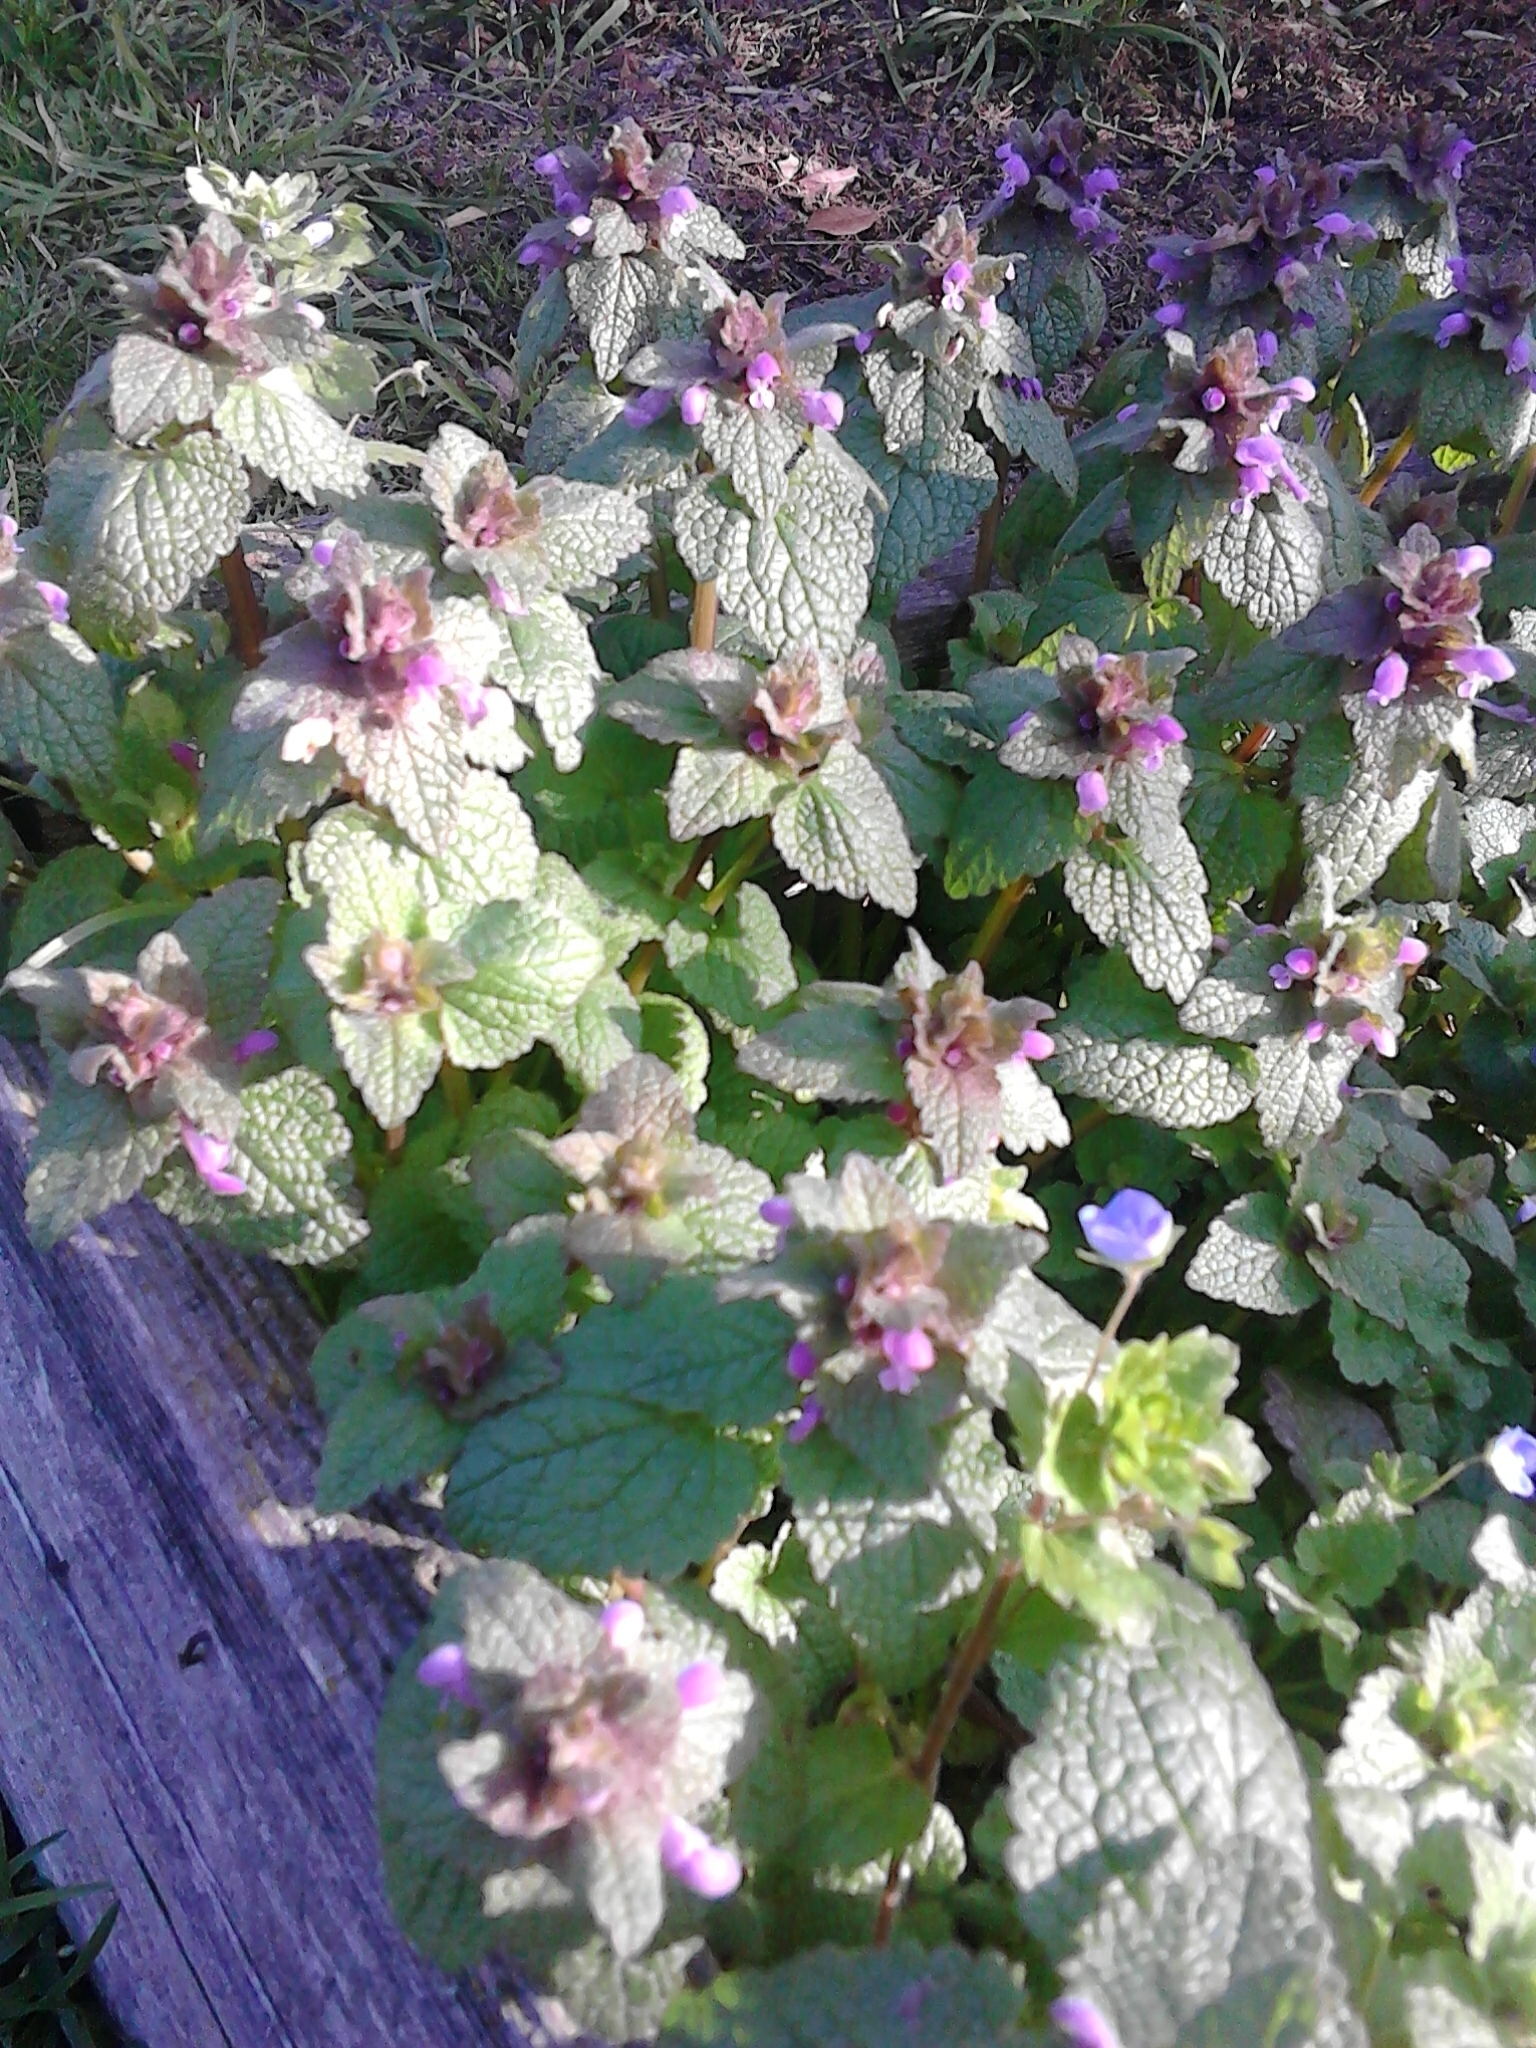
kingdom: Plantae
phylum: Tracheophyta
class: Magnoliopsida
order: Lamiales
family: Lamiaceae
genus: Lamium
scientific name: Lamium purpureum
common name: Red dead-nettle
